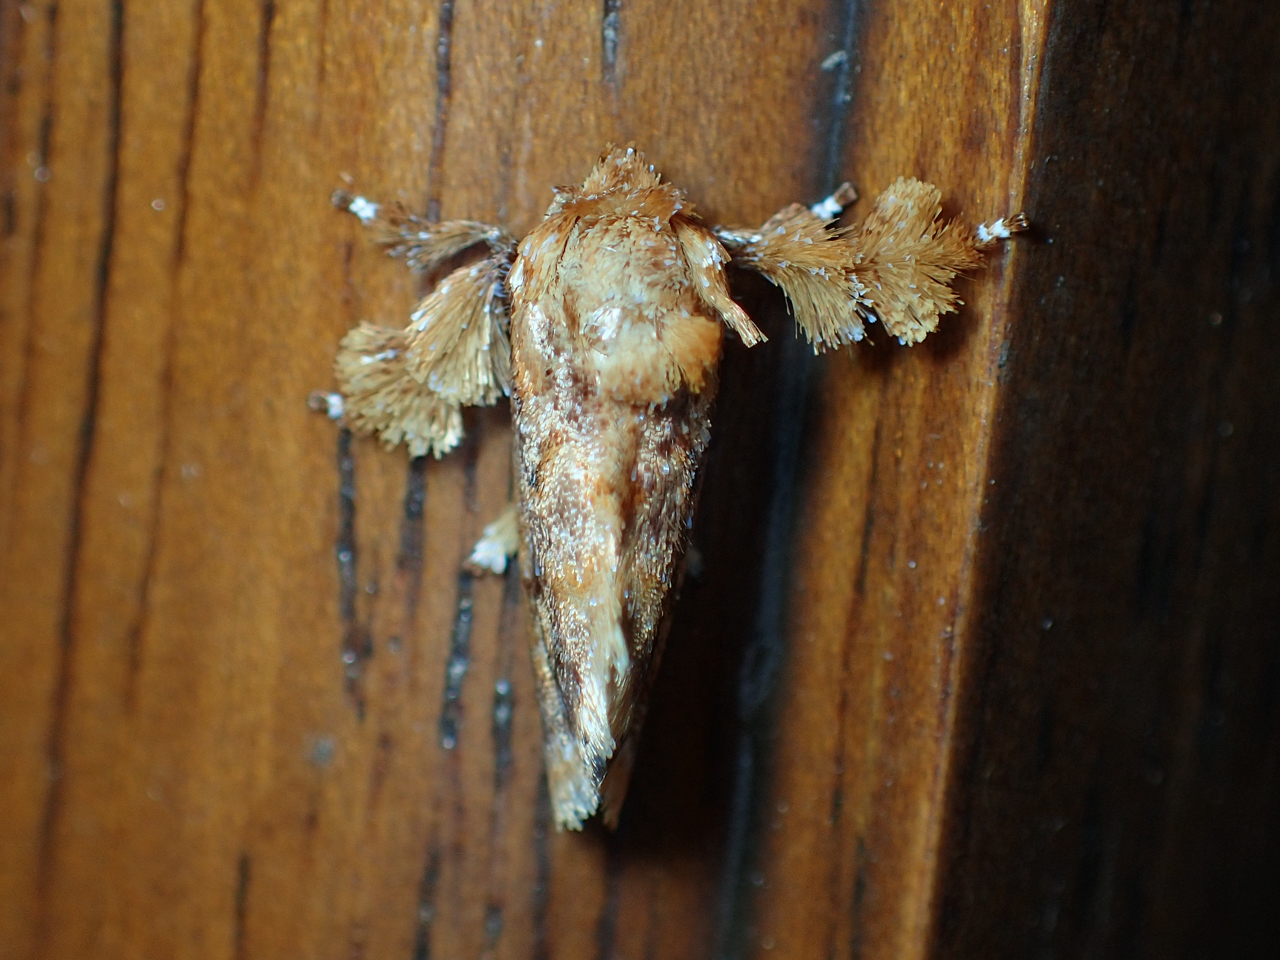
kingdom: Animalia
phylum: Arthropoda
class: Insecta
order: Lepidoptera
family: Limacodidae
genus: Isochaetes
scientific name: Isochaetes beutenmuelleri
